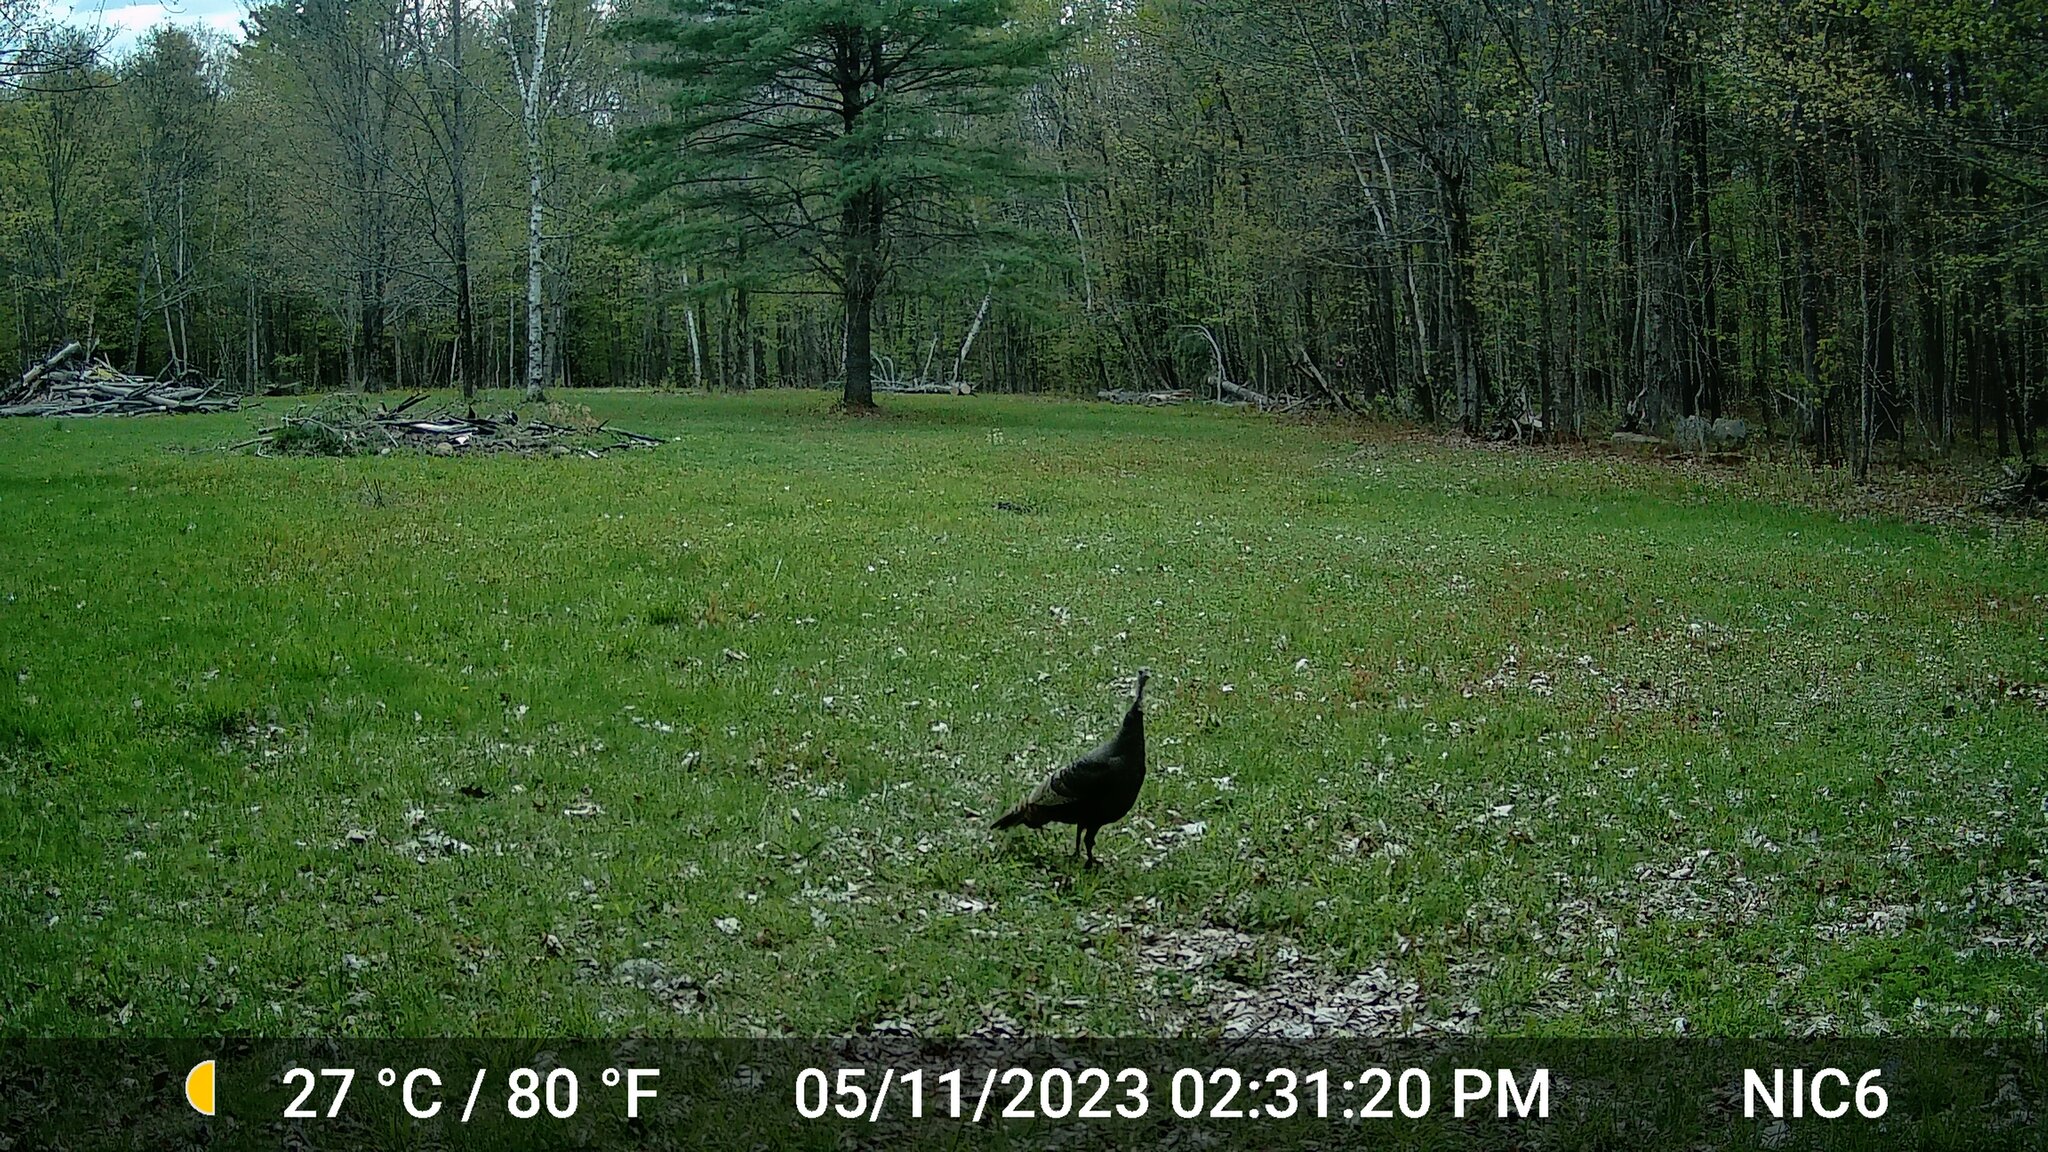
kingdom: Animalia
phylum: Chordata
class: Aves
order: Galliformes
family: Phasianidae
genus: Meleagris
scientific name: Meleagris gallopavo
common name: Wild turkey
